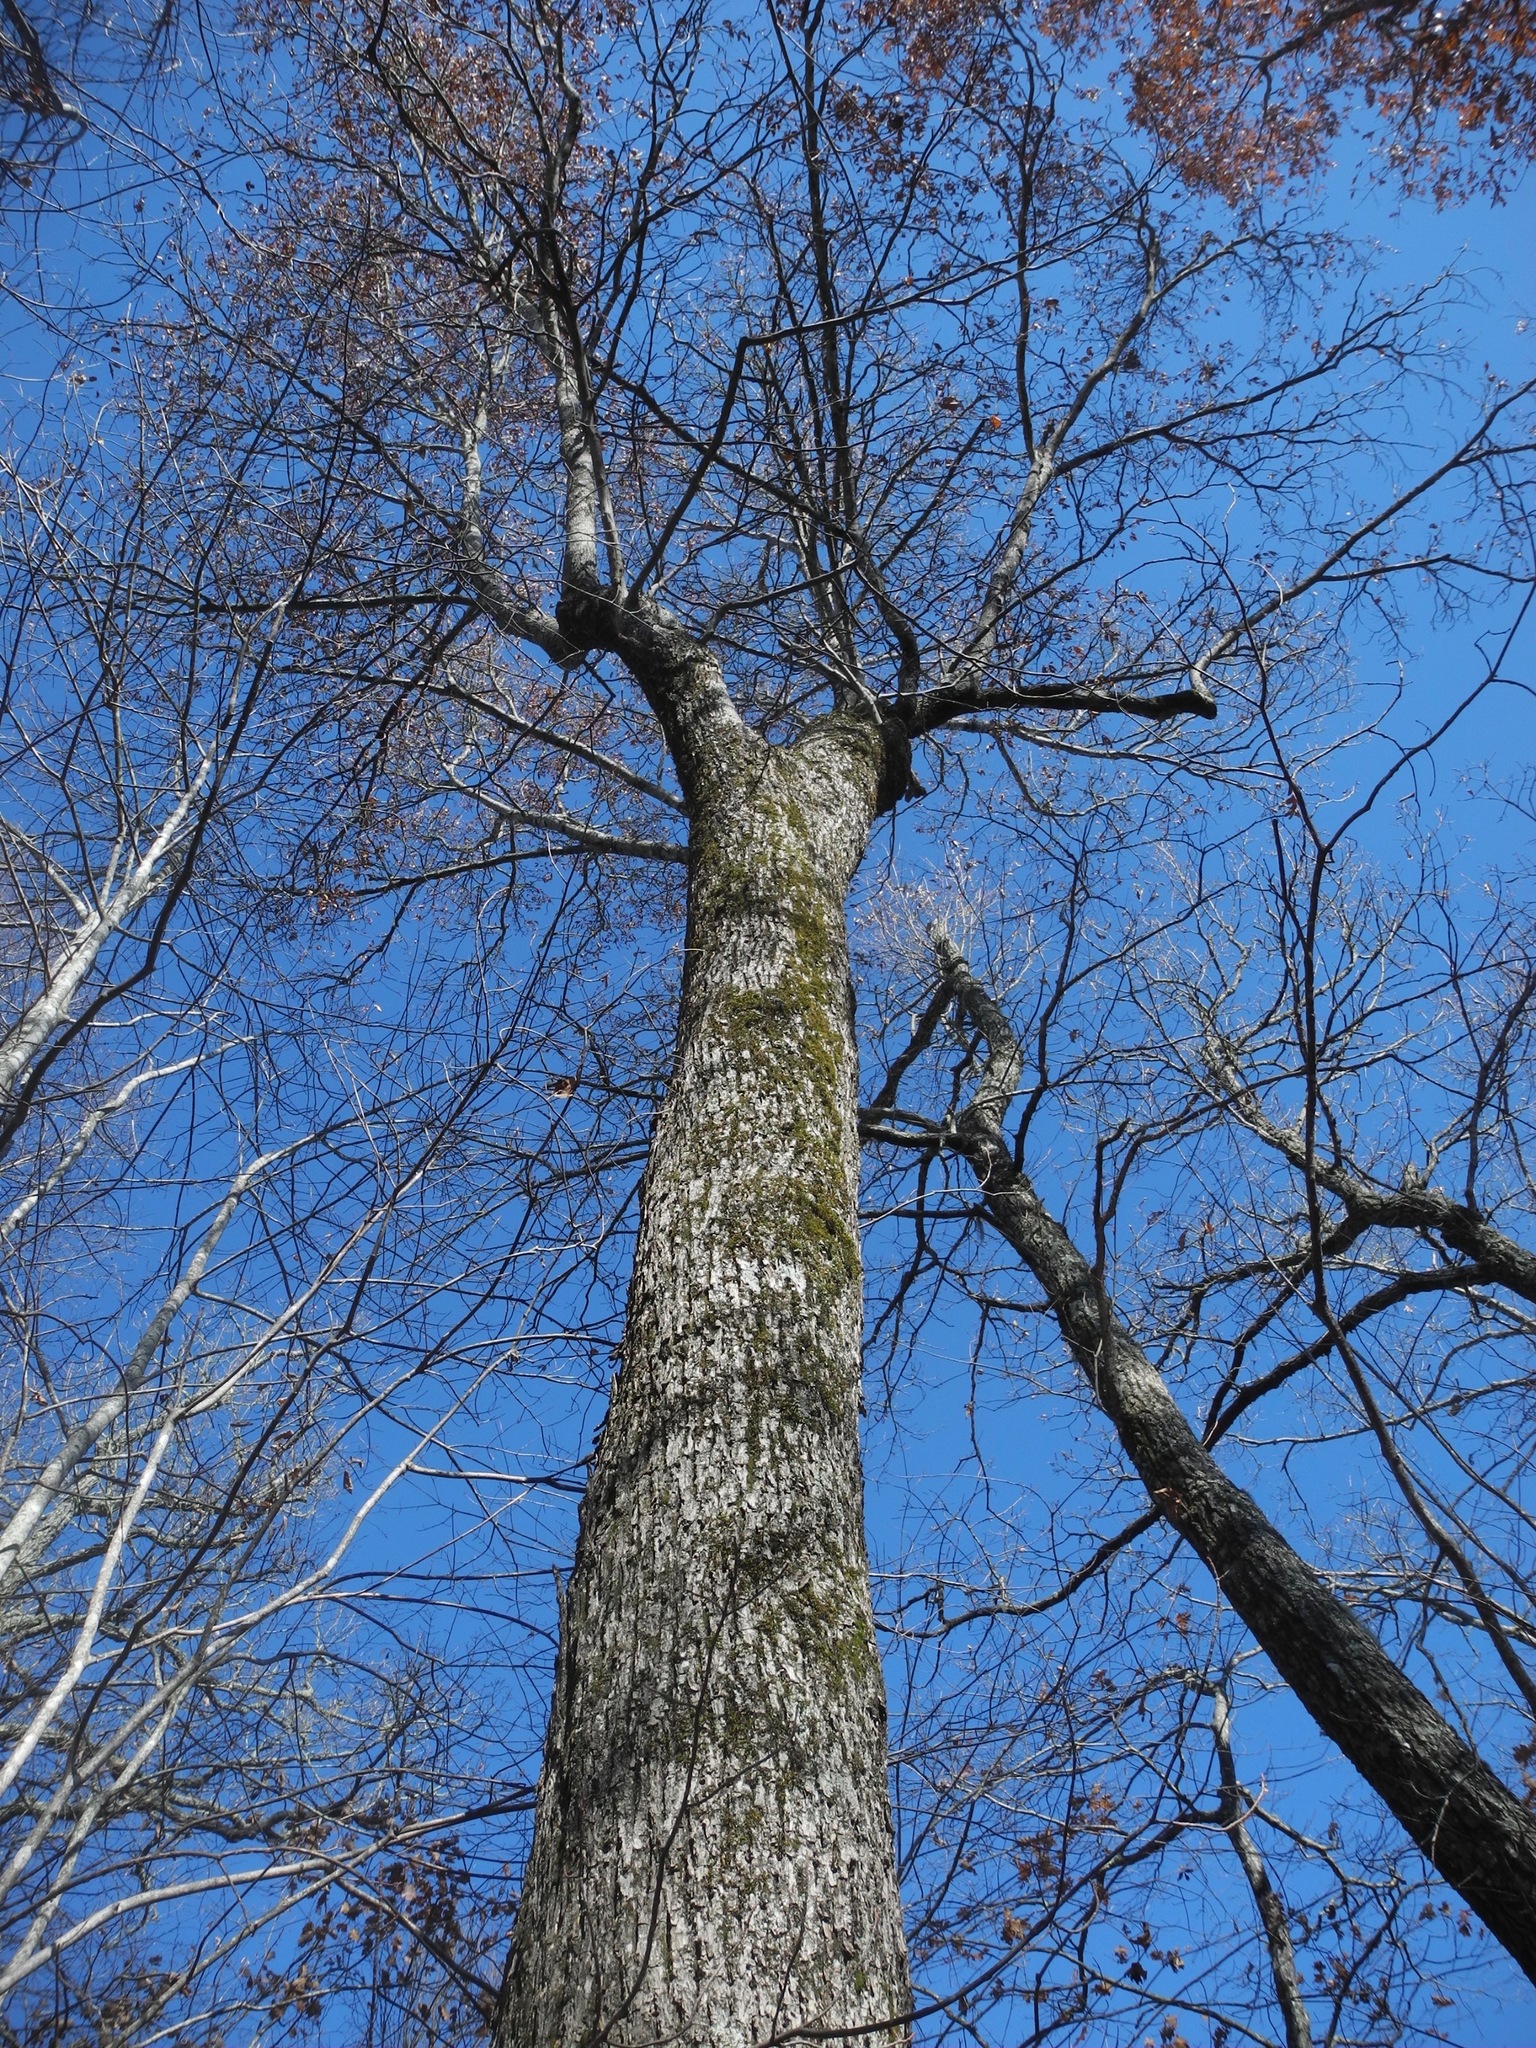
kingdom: Plantae
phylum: Tracheophyta
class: Magnoliopsida
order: Fagales
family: Juglandaceae
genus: Carya
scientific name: Carya glabra
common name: Pignut hickory
